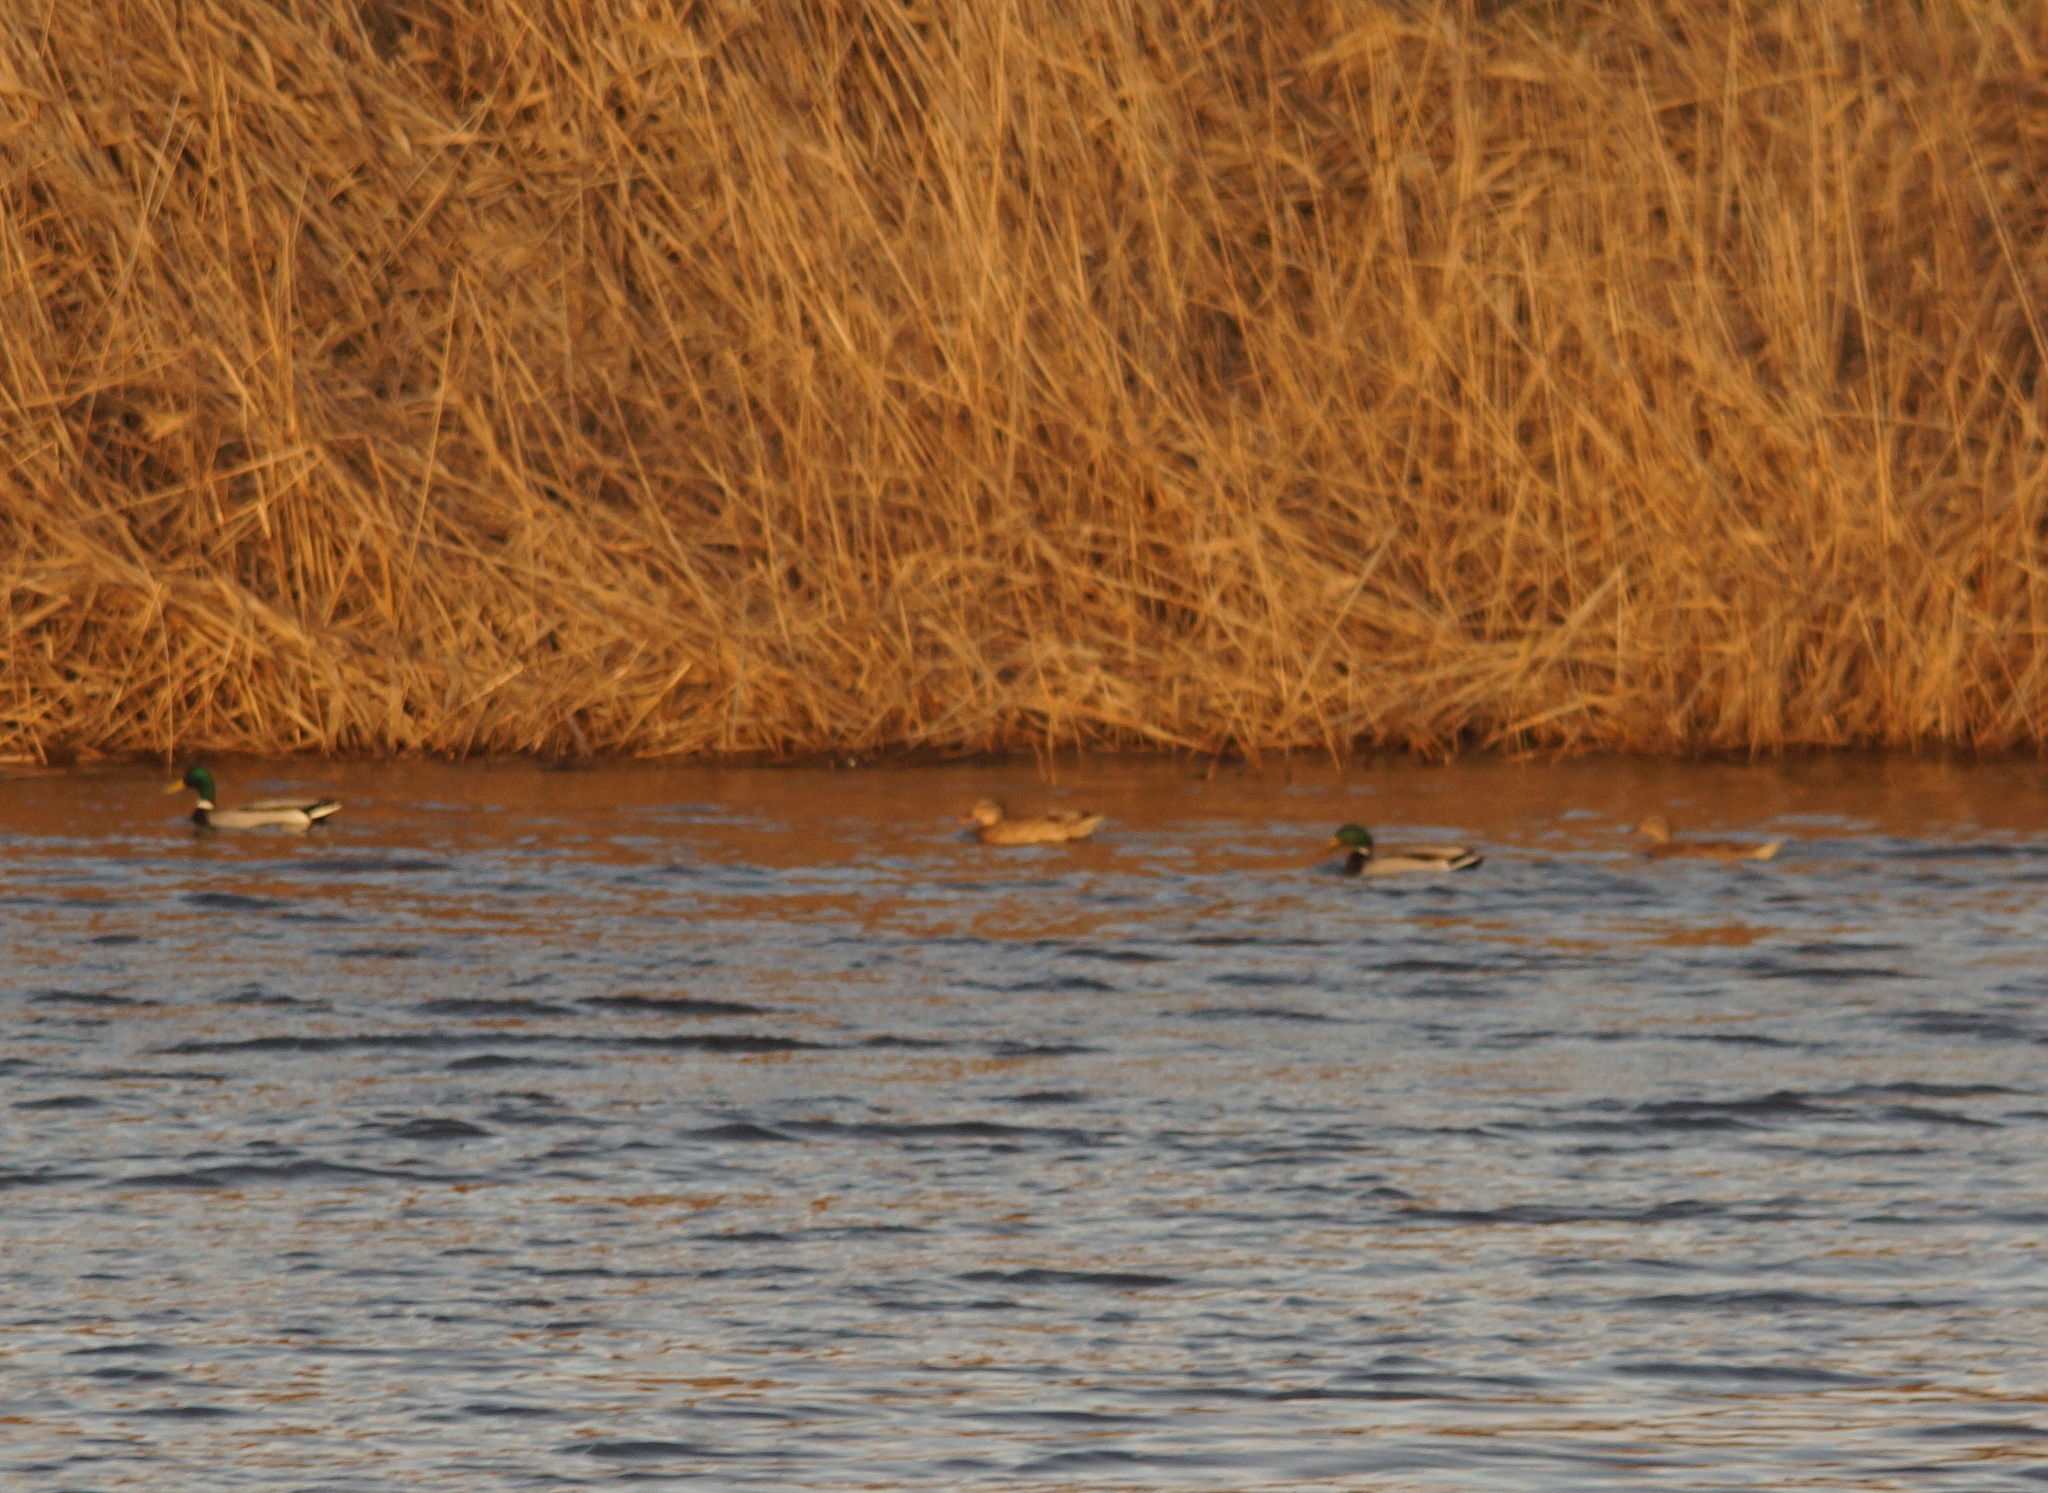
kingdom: Animalia
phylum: Chordata
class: Aves
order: Anseriformes
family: Anatidae
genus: Anas
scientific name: Anas platyrhynchos
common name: Mallard
